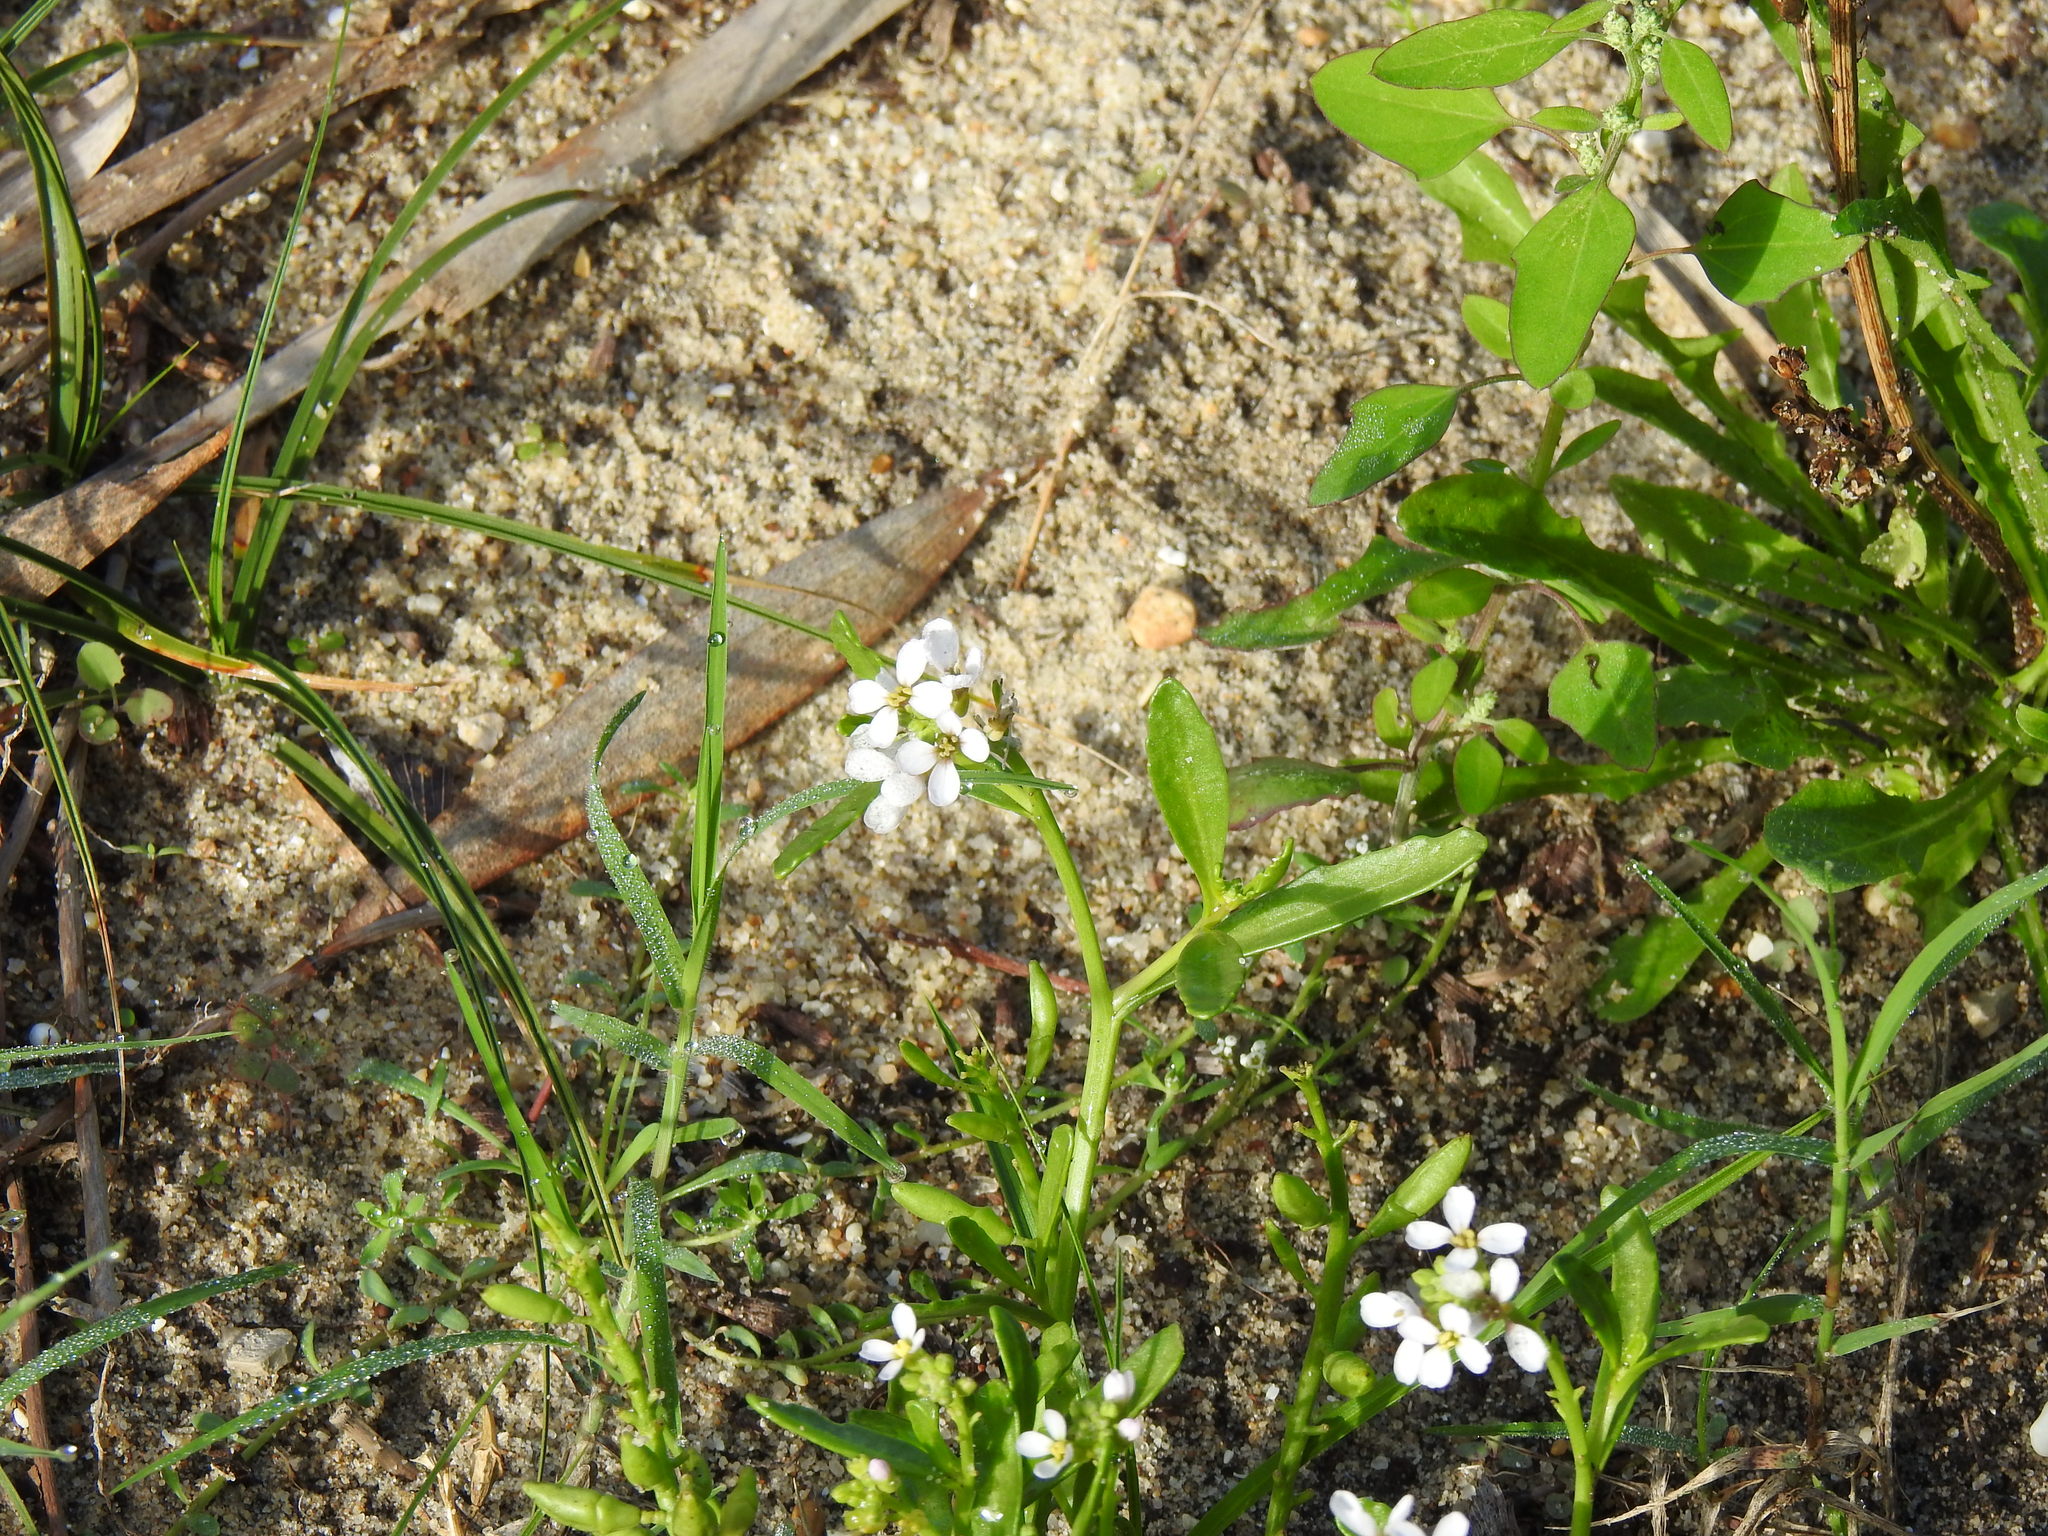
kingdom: Plantae
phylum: Tracheophyta
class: Magnoliopsida
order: Brassicales
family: Brassicaceae
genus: Cakile
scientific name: Cakile maritima
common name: Sea rocket
